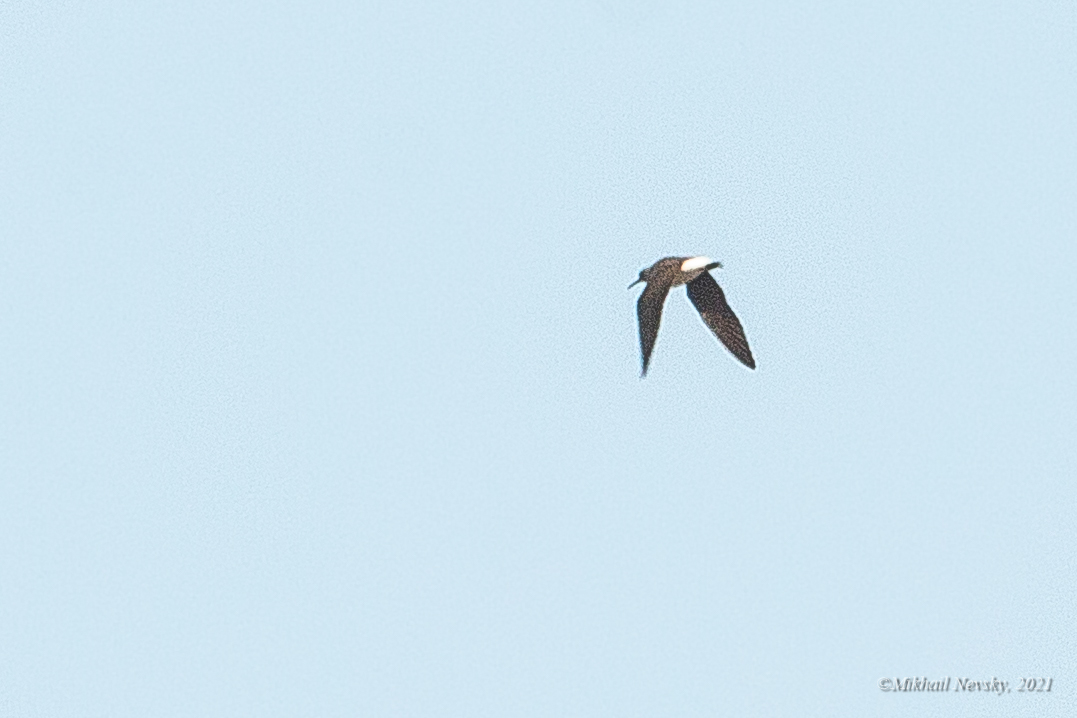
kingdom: Animalia
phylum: Chordata
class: Aves
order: Charadriiformes
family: Scolopacidae
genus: Tringa
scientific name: Tringa ochropus
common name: Green sandpiper
